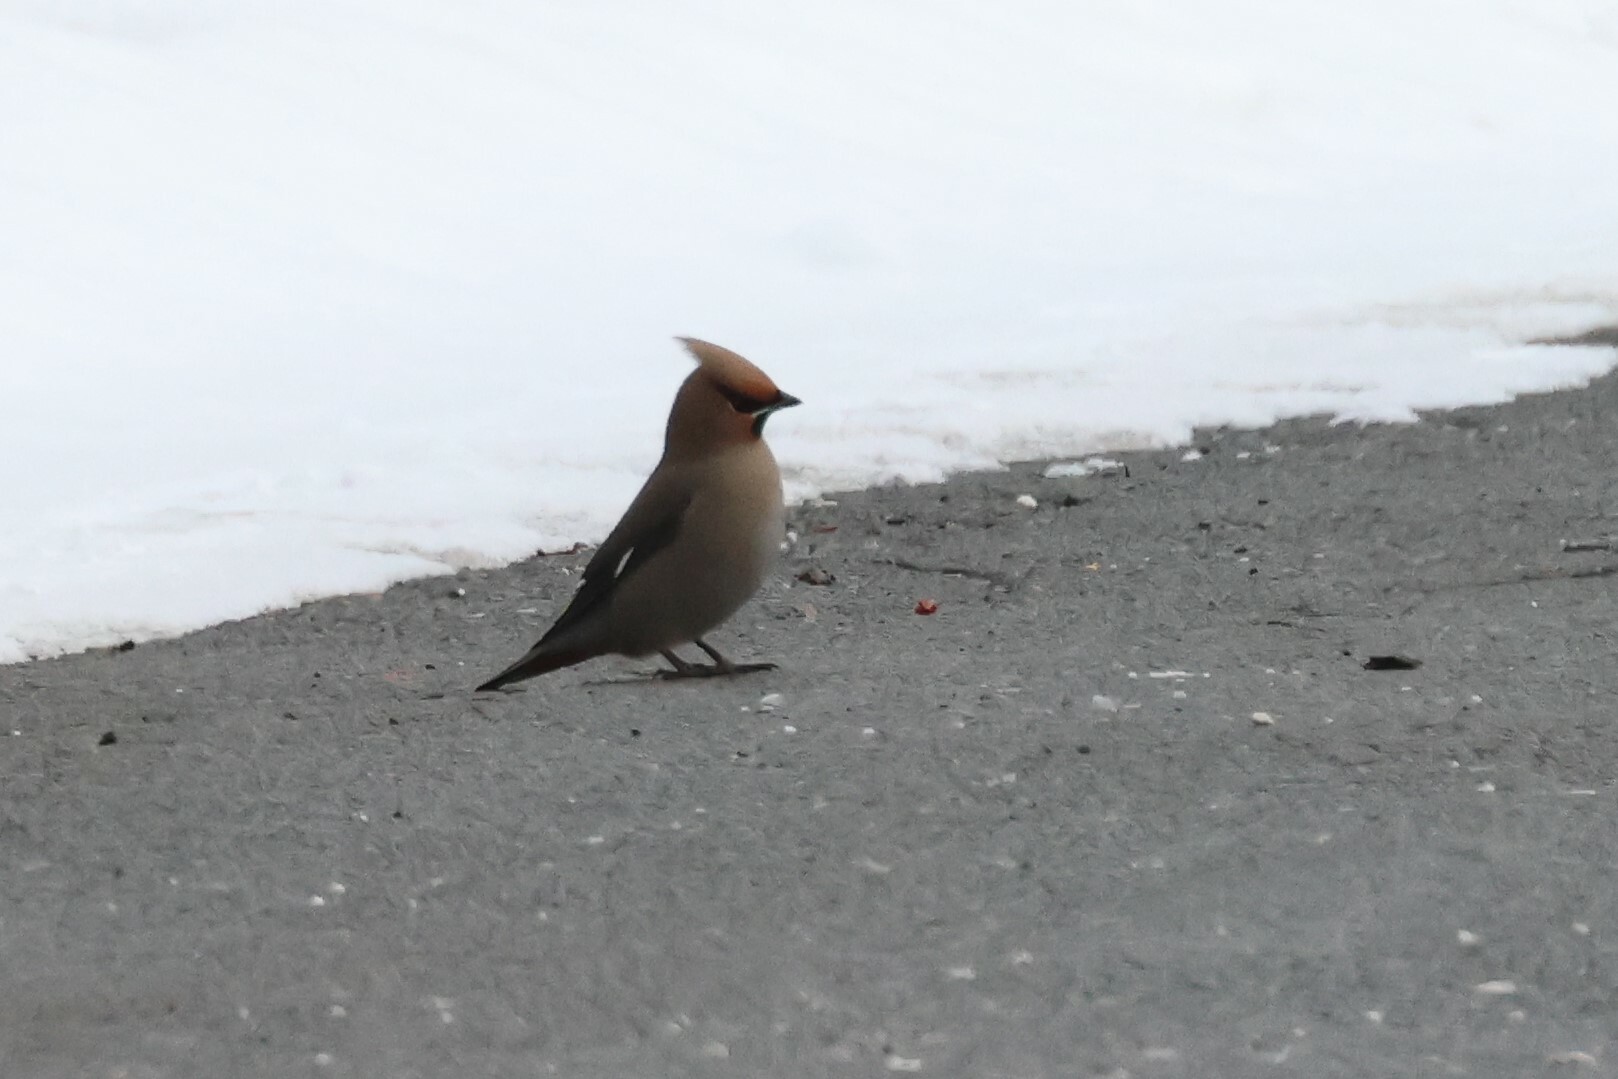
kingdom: Animalia
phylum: Chordata
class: Aves
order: Passeriformes
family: Bombycillidae
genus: Bombycilla
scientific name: Bombycilla garrulus
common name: Bohemian waxwing
